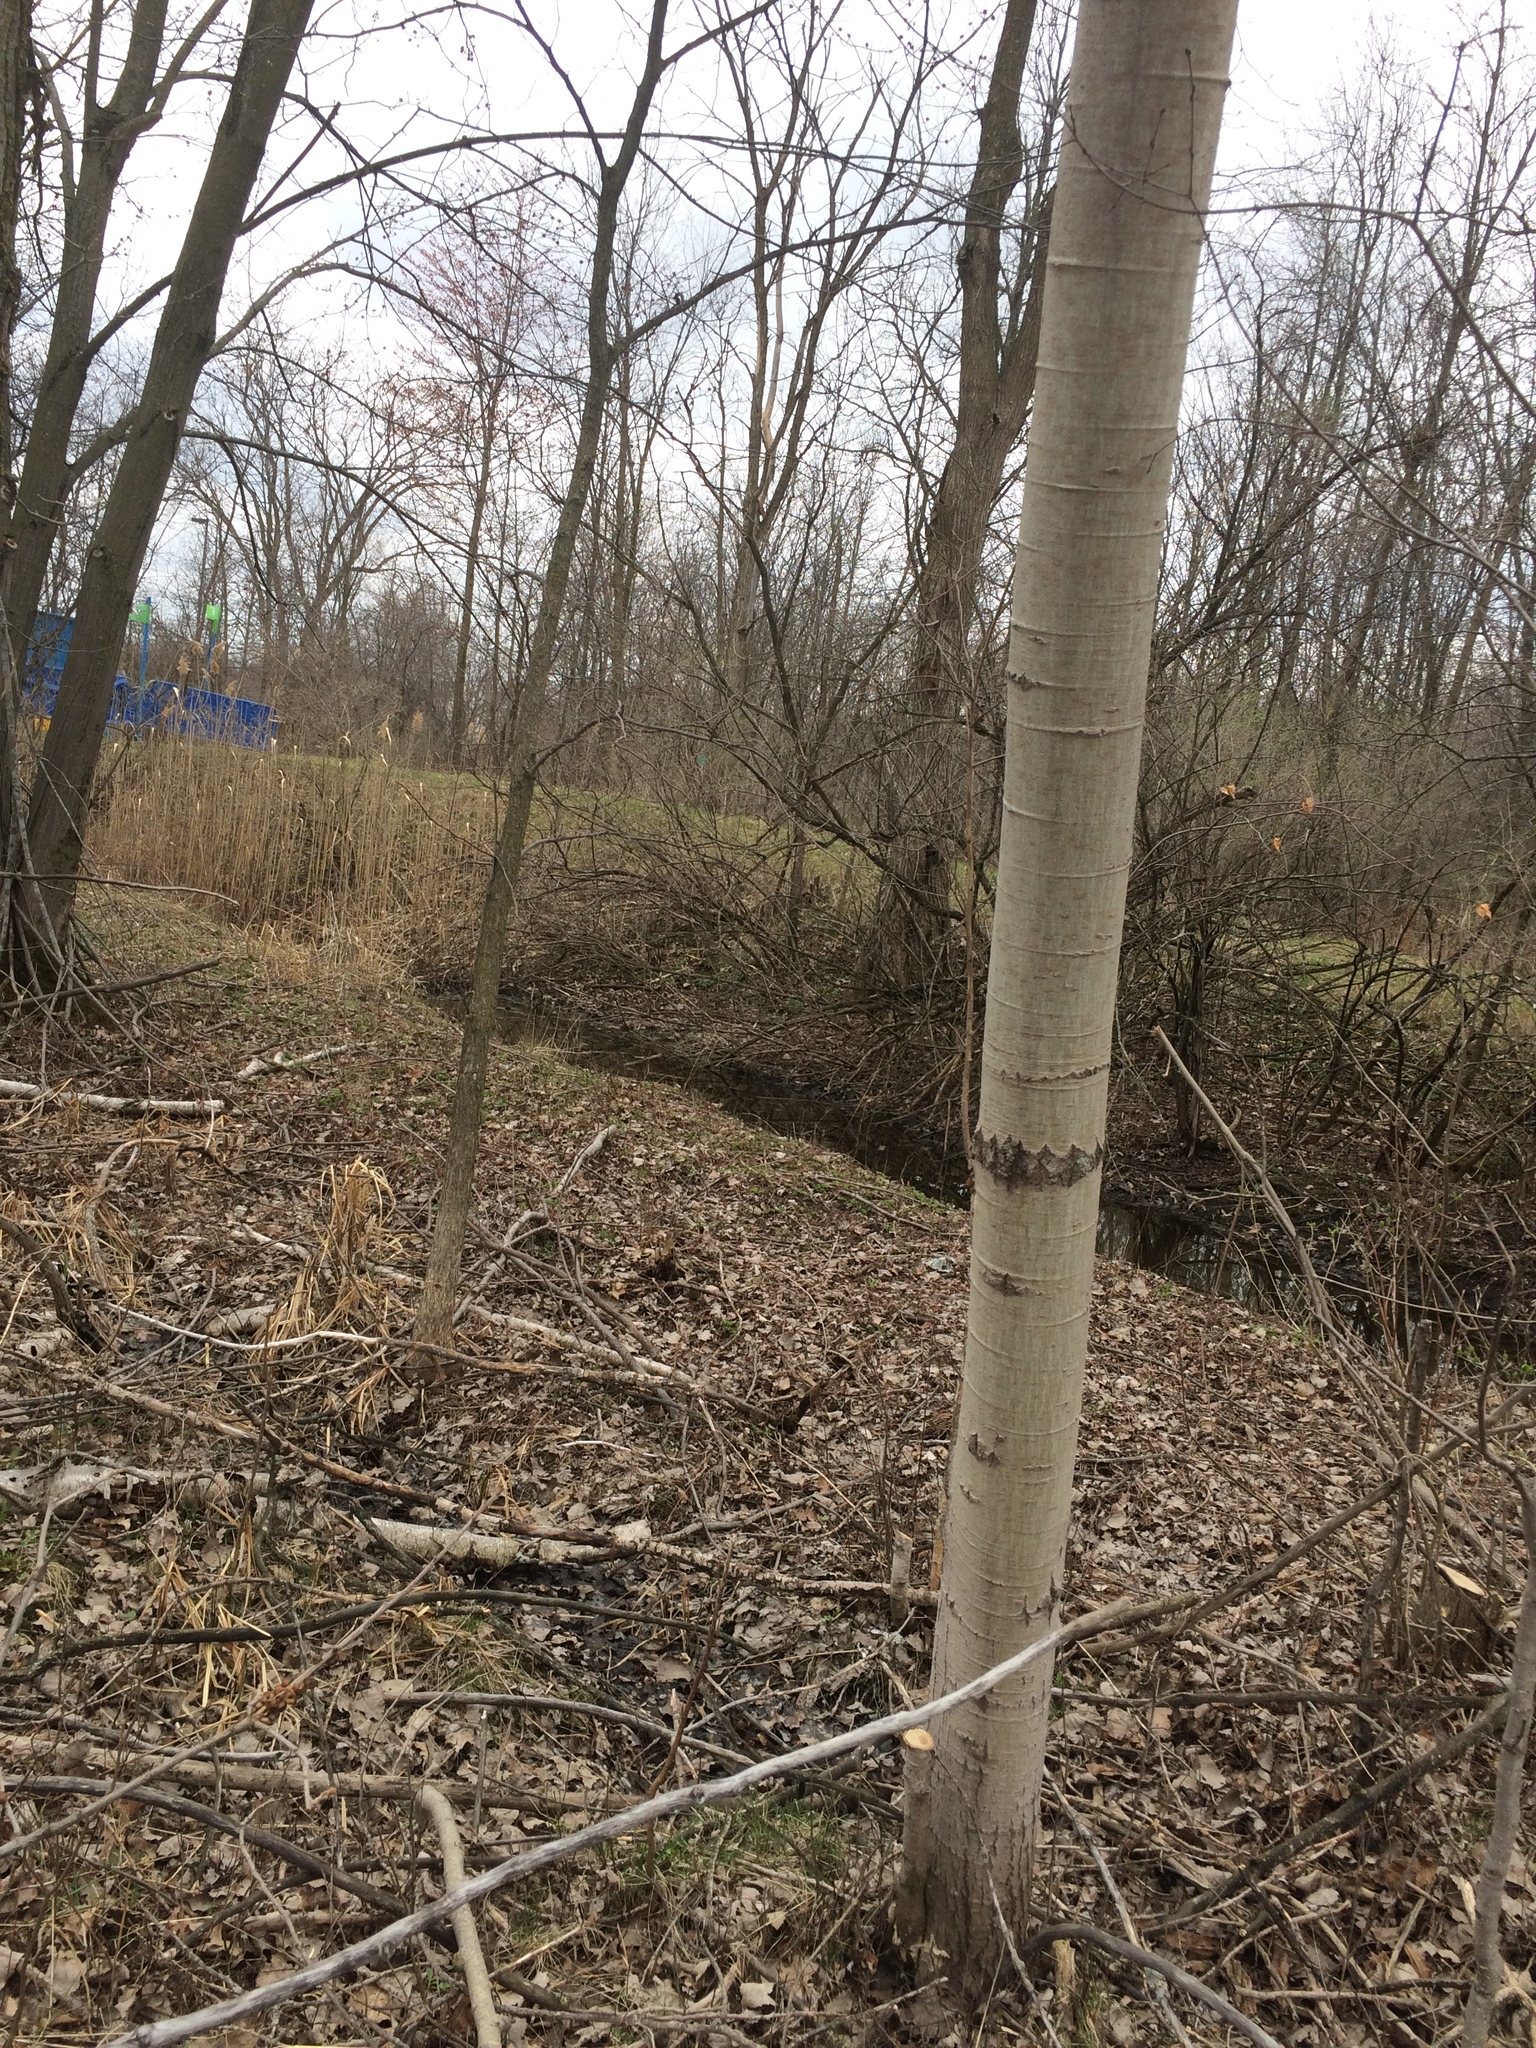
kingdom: Plantae
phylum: Tracheophyta
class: Magnoliopsida
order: Malpighiales
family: Salicaceae
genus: Populus
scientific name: Populus tremuloides
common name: Quaking aspen
